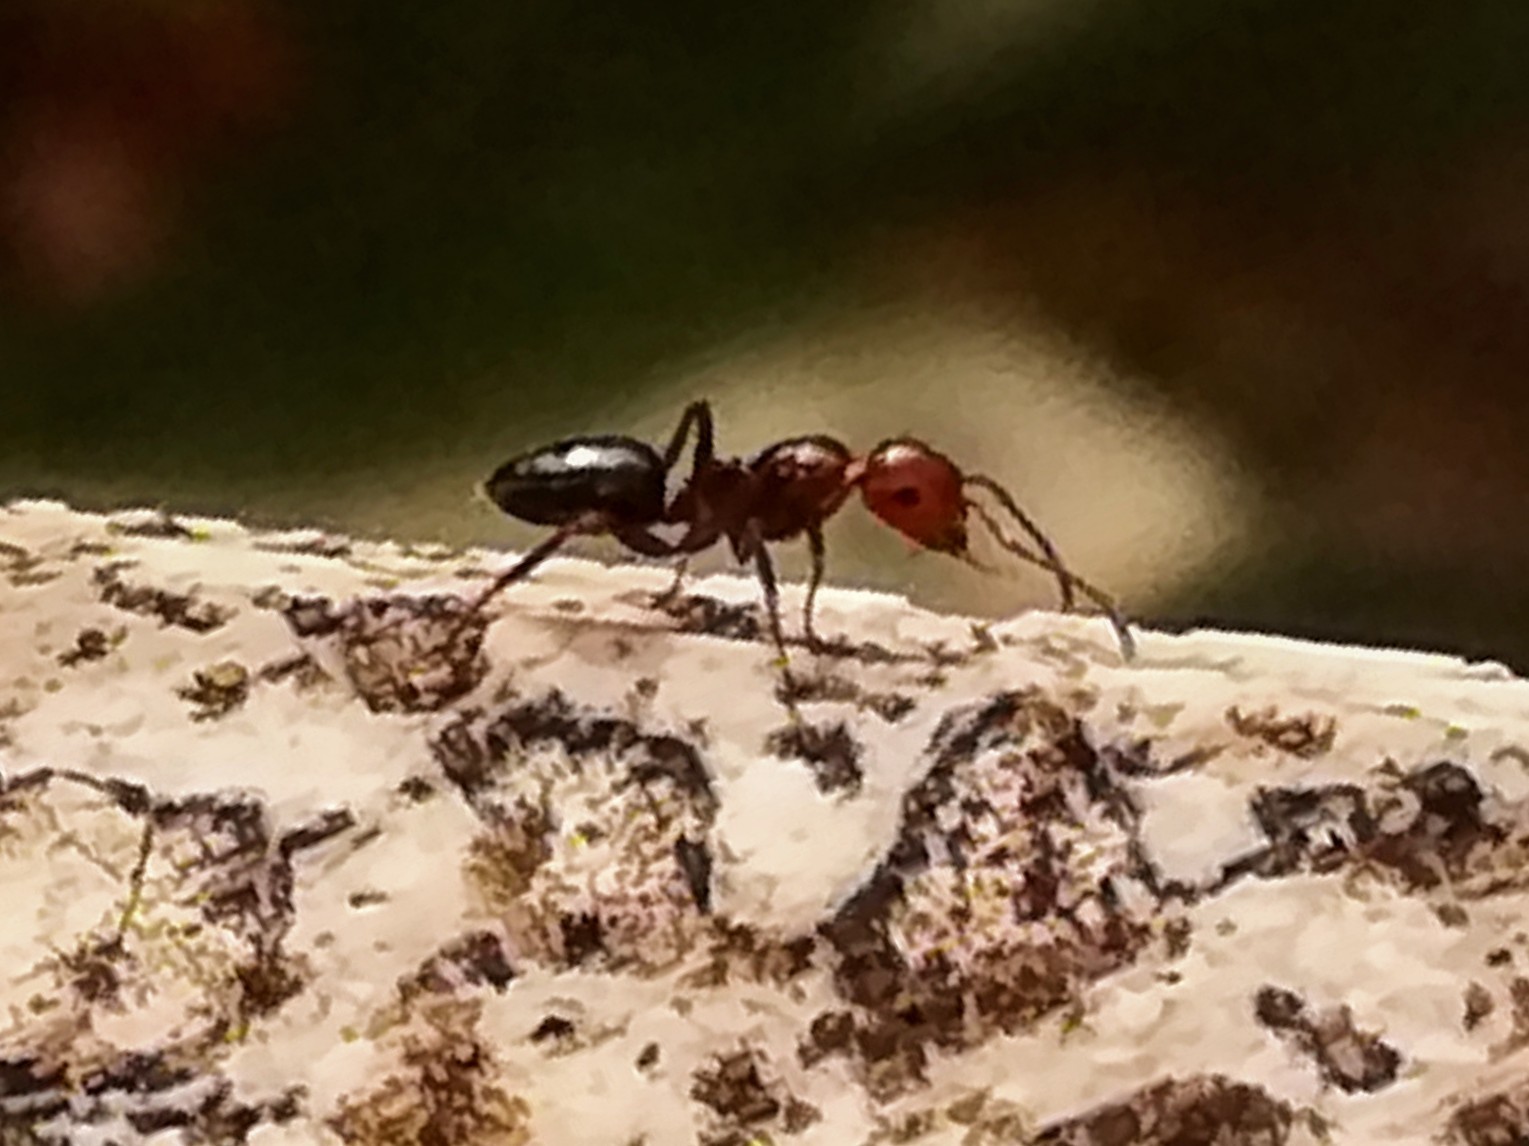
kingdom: Animalia
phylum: Arthropoda
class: Insecta
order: Hymenoptera
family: Formicidae
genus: Camponotus
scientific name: Camponotus lateralis
